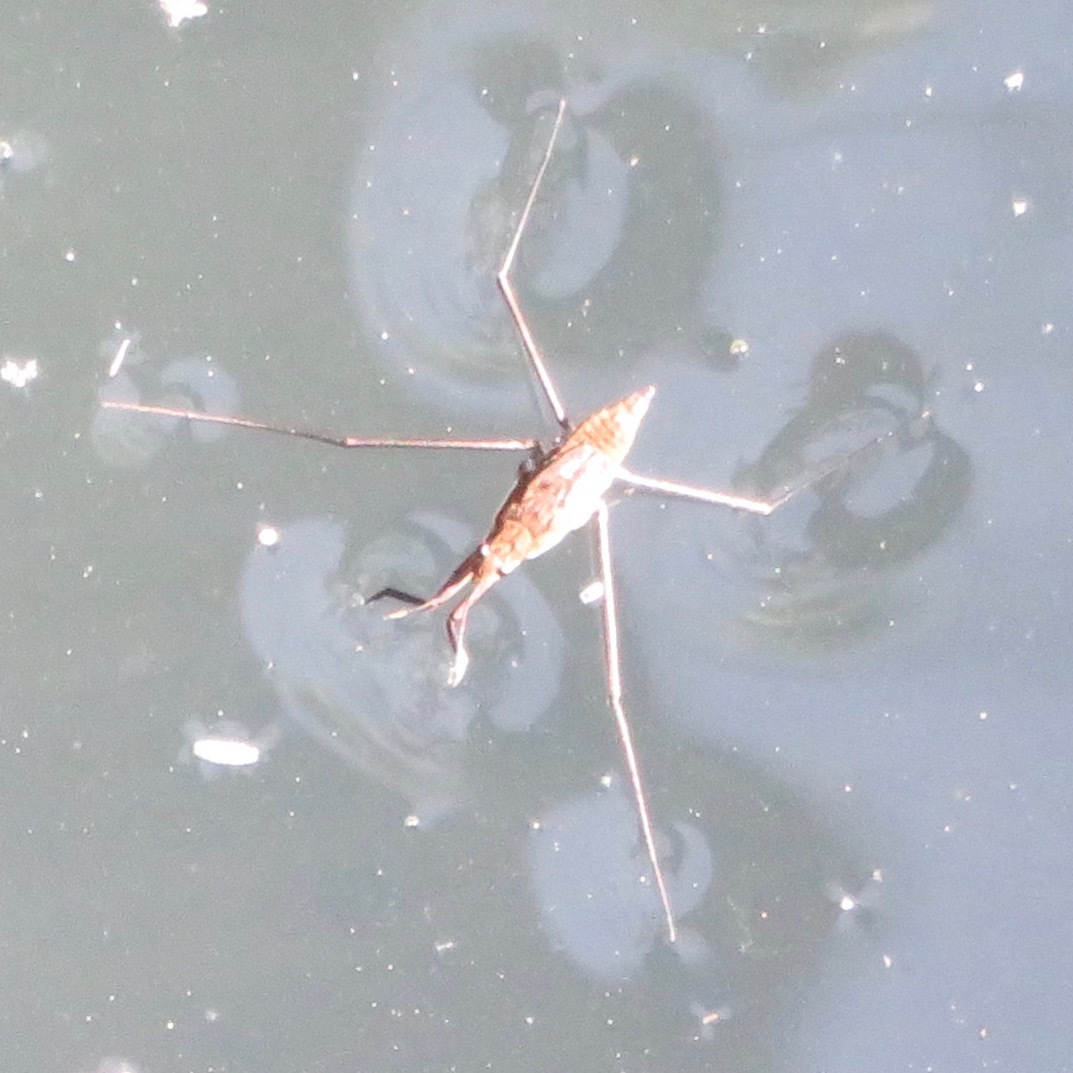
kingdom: Animalia
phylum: Arthropoda
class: Insecta
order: Hemiptera
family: Gerridae
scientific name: Gerridae
